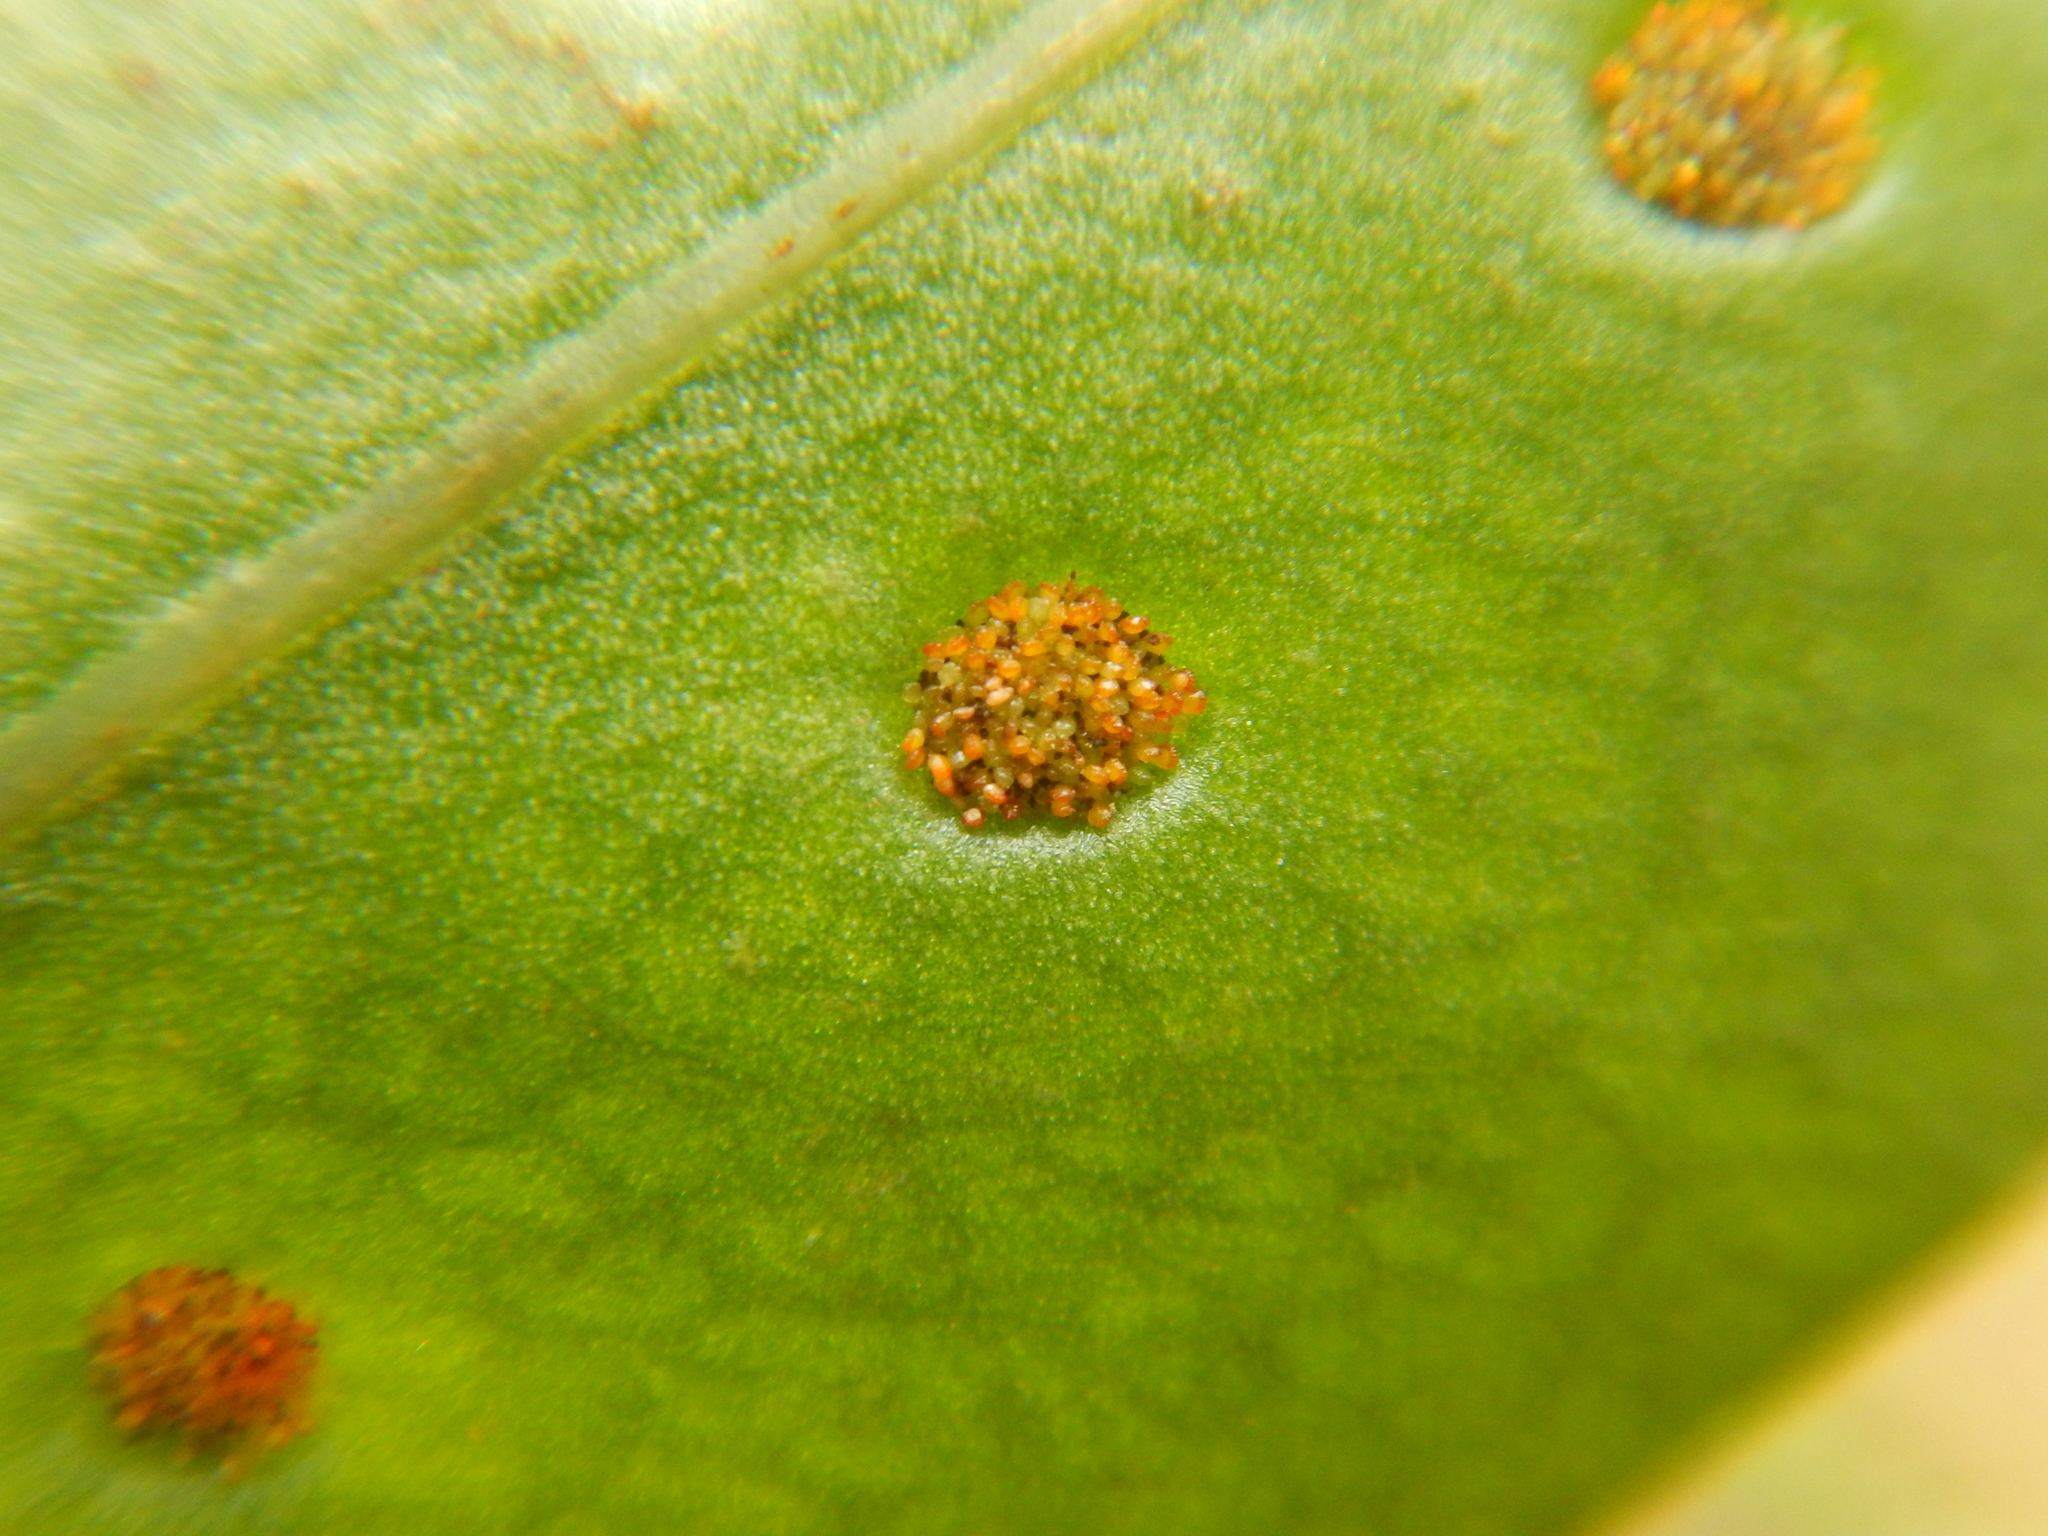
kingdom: Plantae
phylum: Tracheophyta
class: Polypodiopsida
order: Polypodiales
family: Polypodiaceae
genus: Microsorum
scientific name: Microsorum grossum
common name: Musk fern
